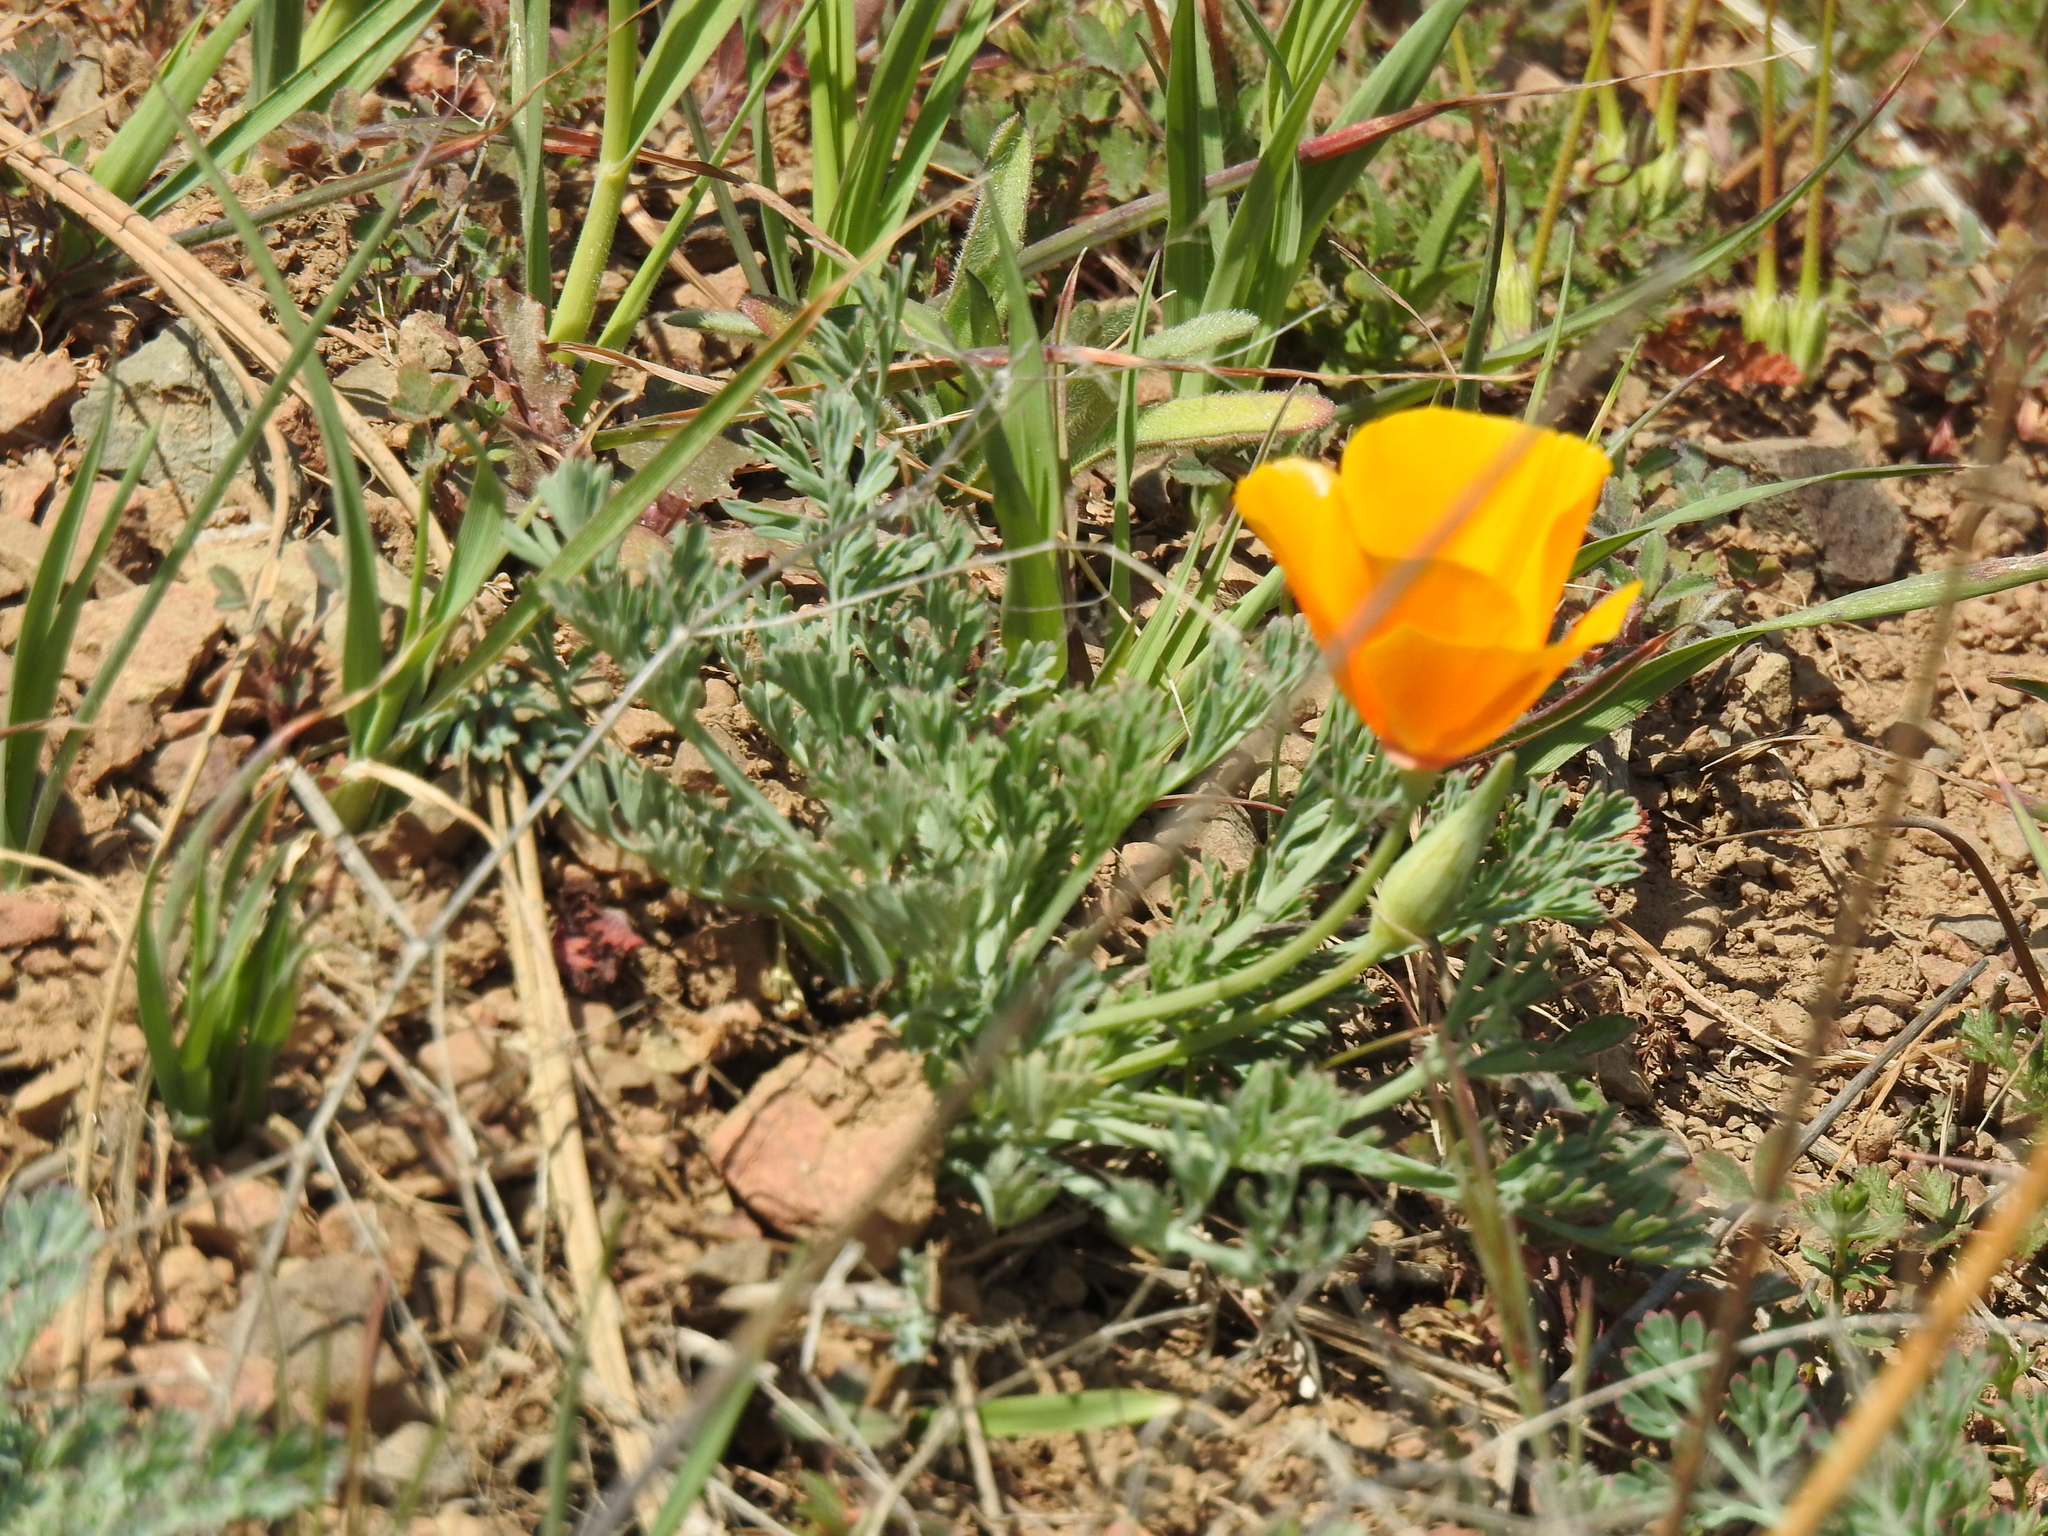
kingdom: Plantae
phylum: Tracheophyta
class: Magnoliopsida
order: Ranunculales
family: Papaveraceae
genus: Eschscholzia
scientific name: Eschscholzia californica
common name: California poppy
